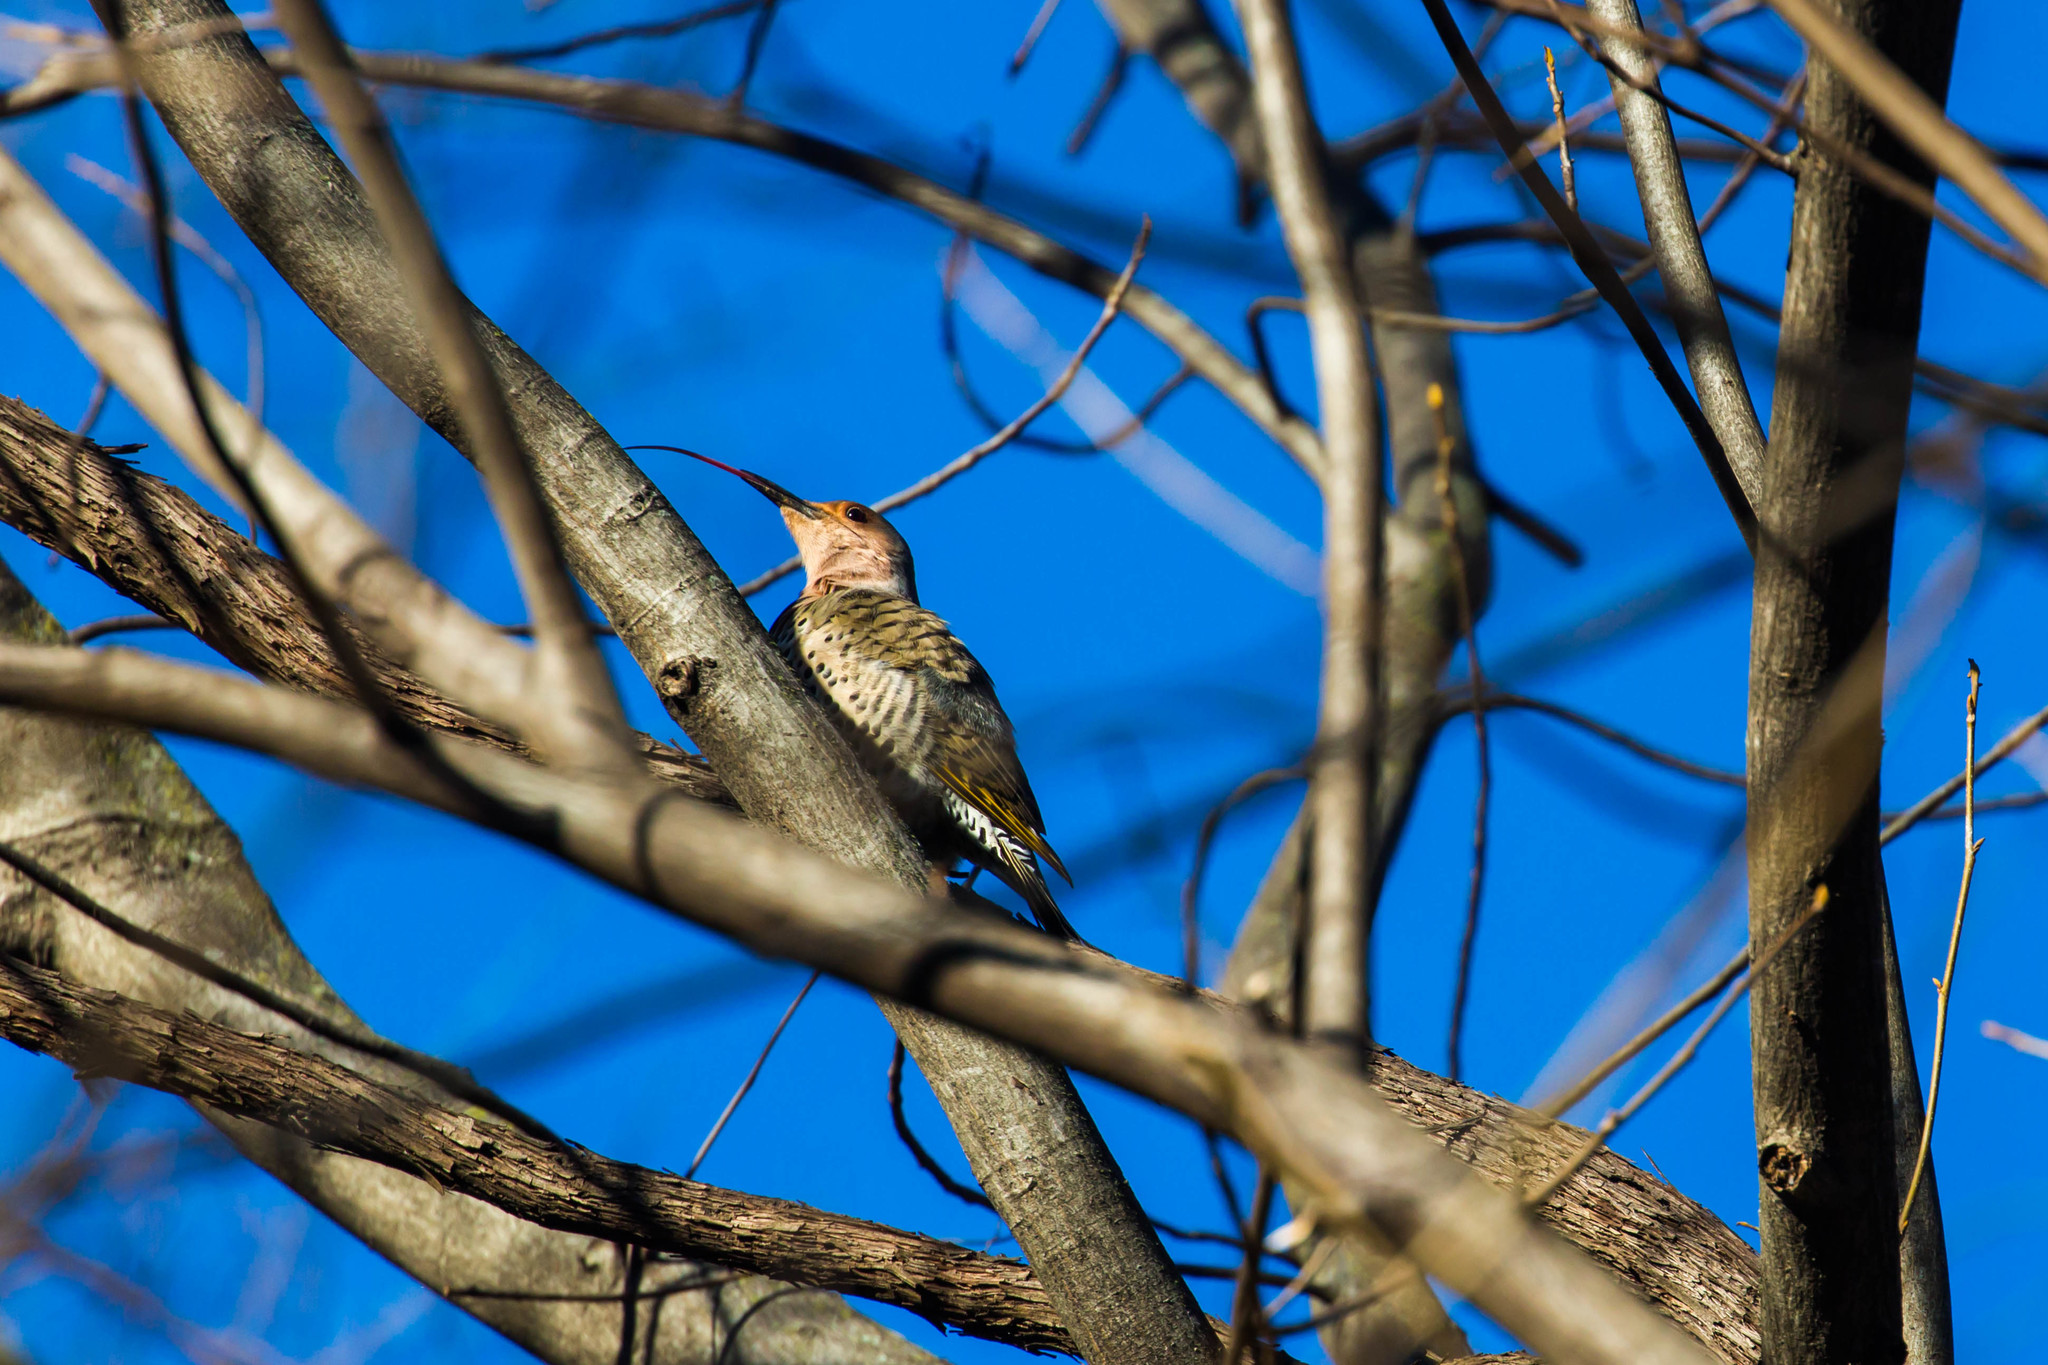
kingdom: Animalia
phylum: Chordata
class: Aves
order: Piciformes
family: Picidae
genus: Colaptes
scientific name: Colaptes auratus
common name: Northern flicker
